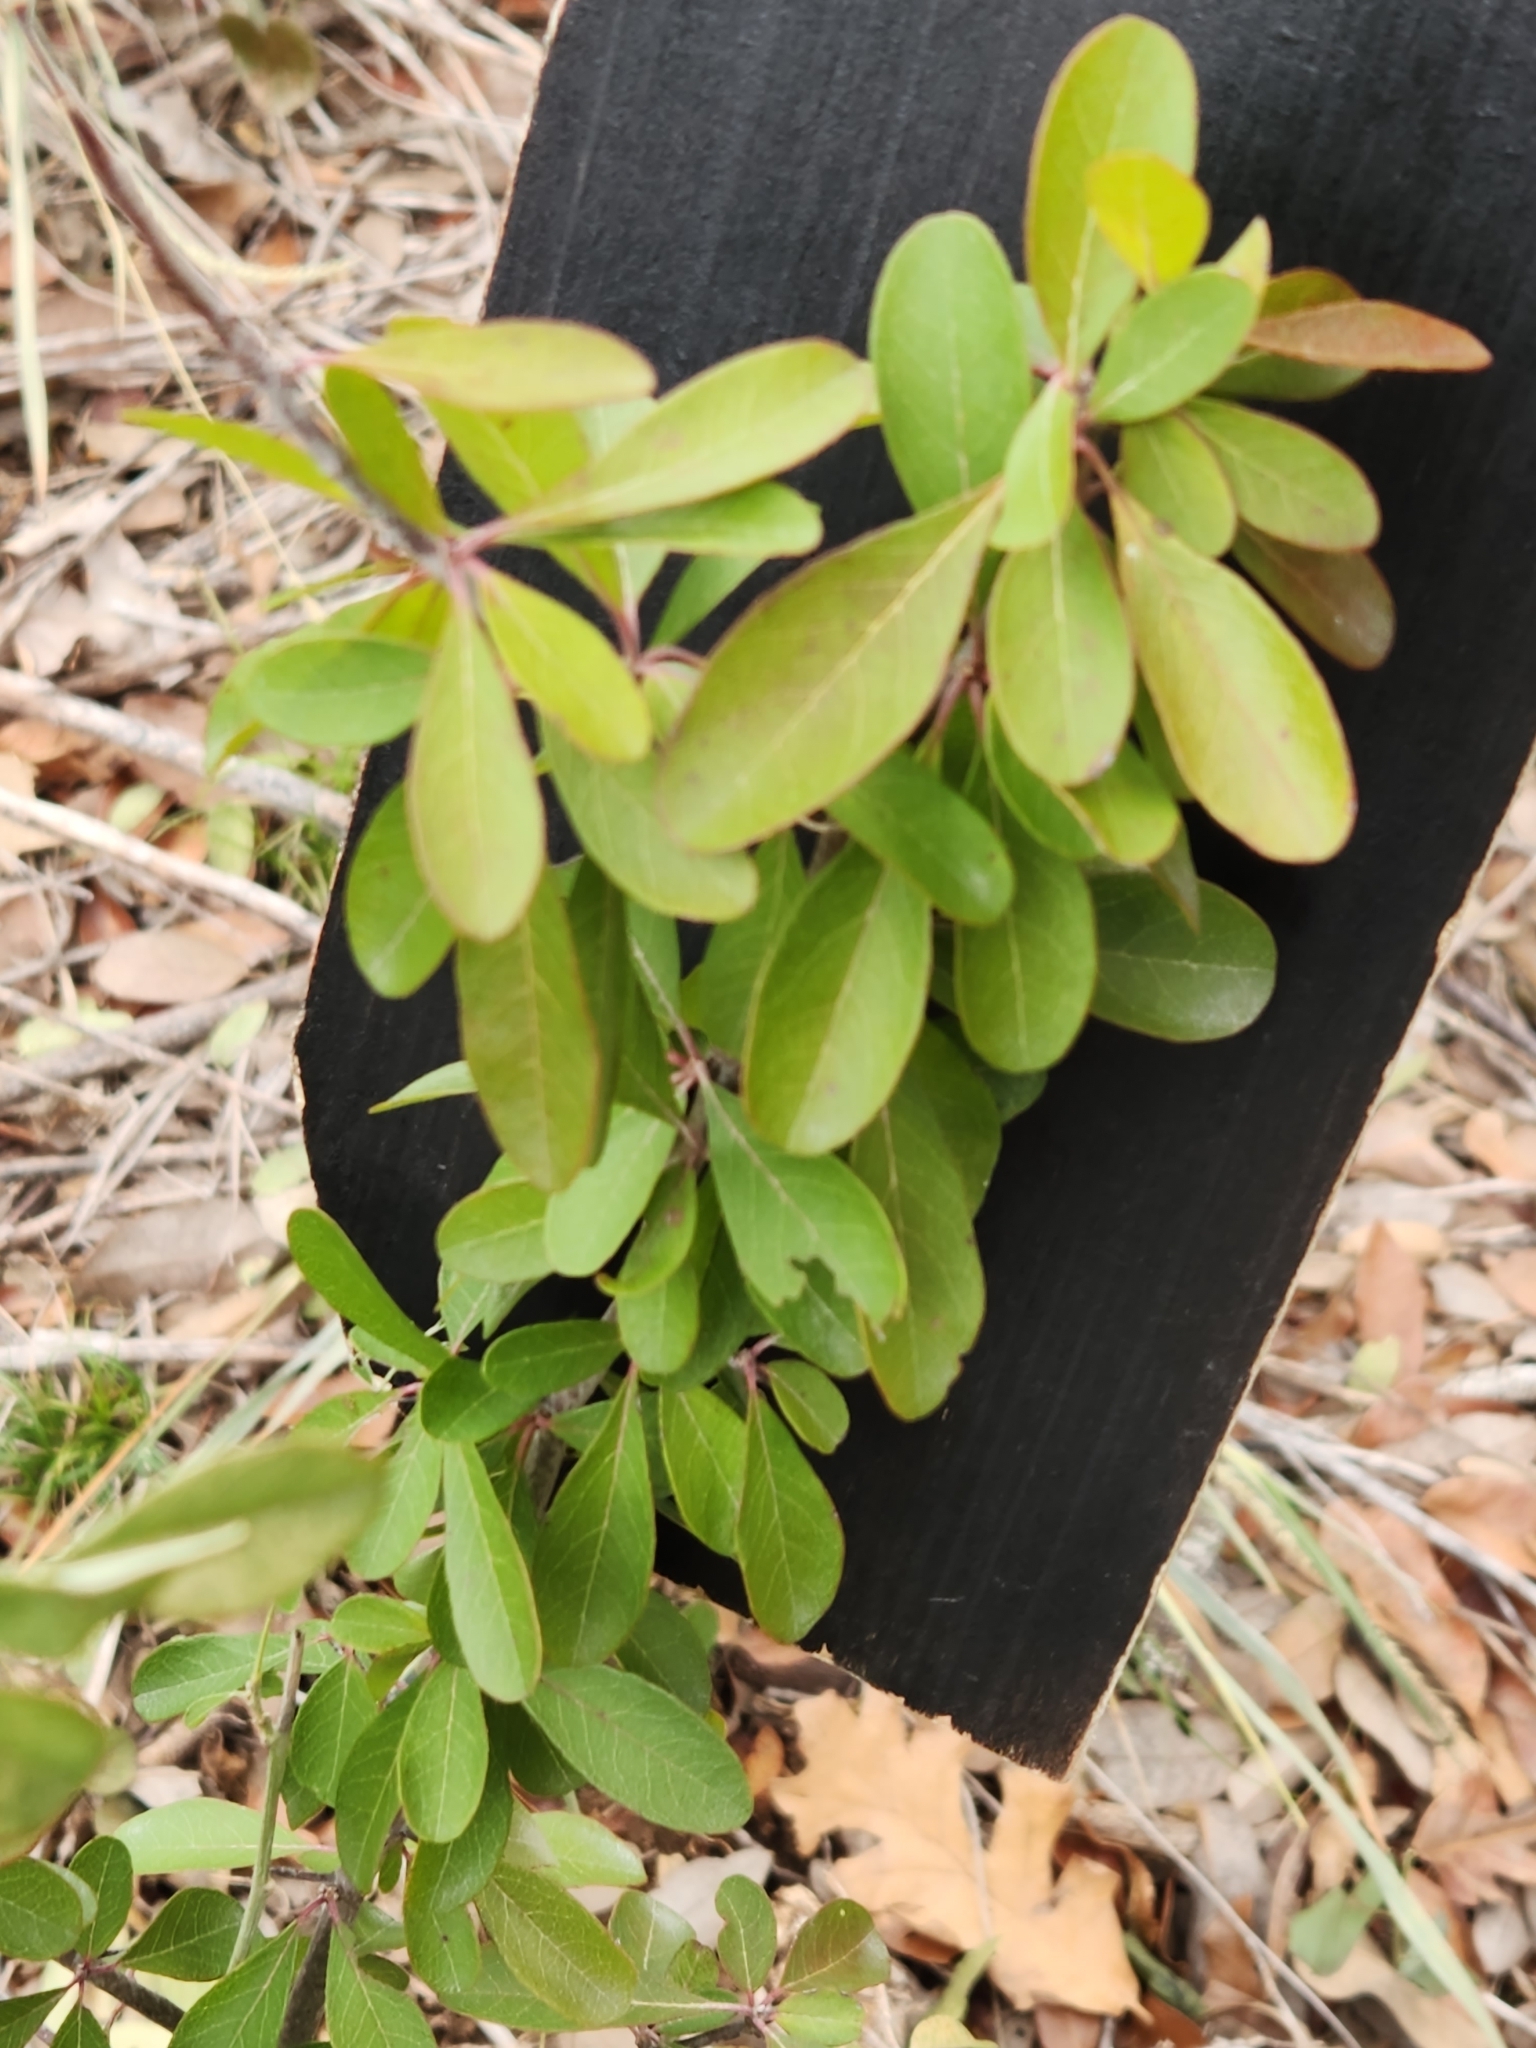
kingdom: Plantae
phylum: Tracheophyta
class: Magnoliopsida
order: Ericales
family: Sapotaceae
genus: Sideroxylon
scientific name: Sideroxylon lanuginosum
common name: Chittamwood
